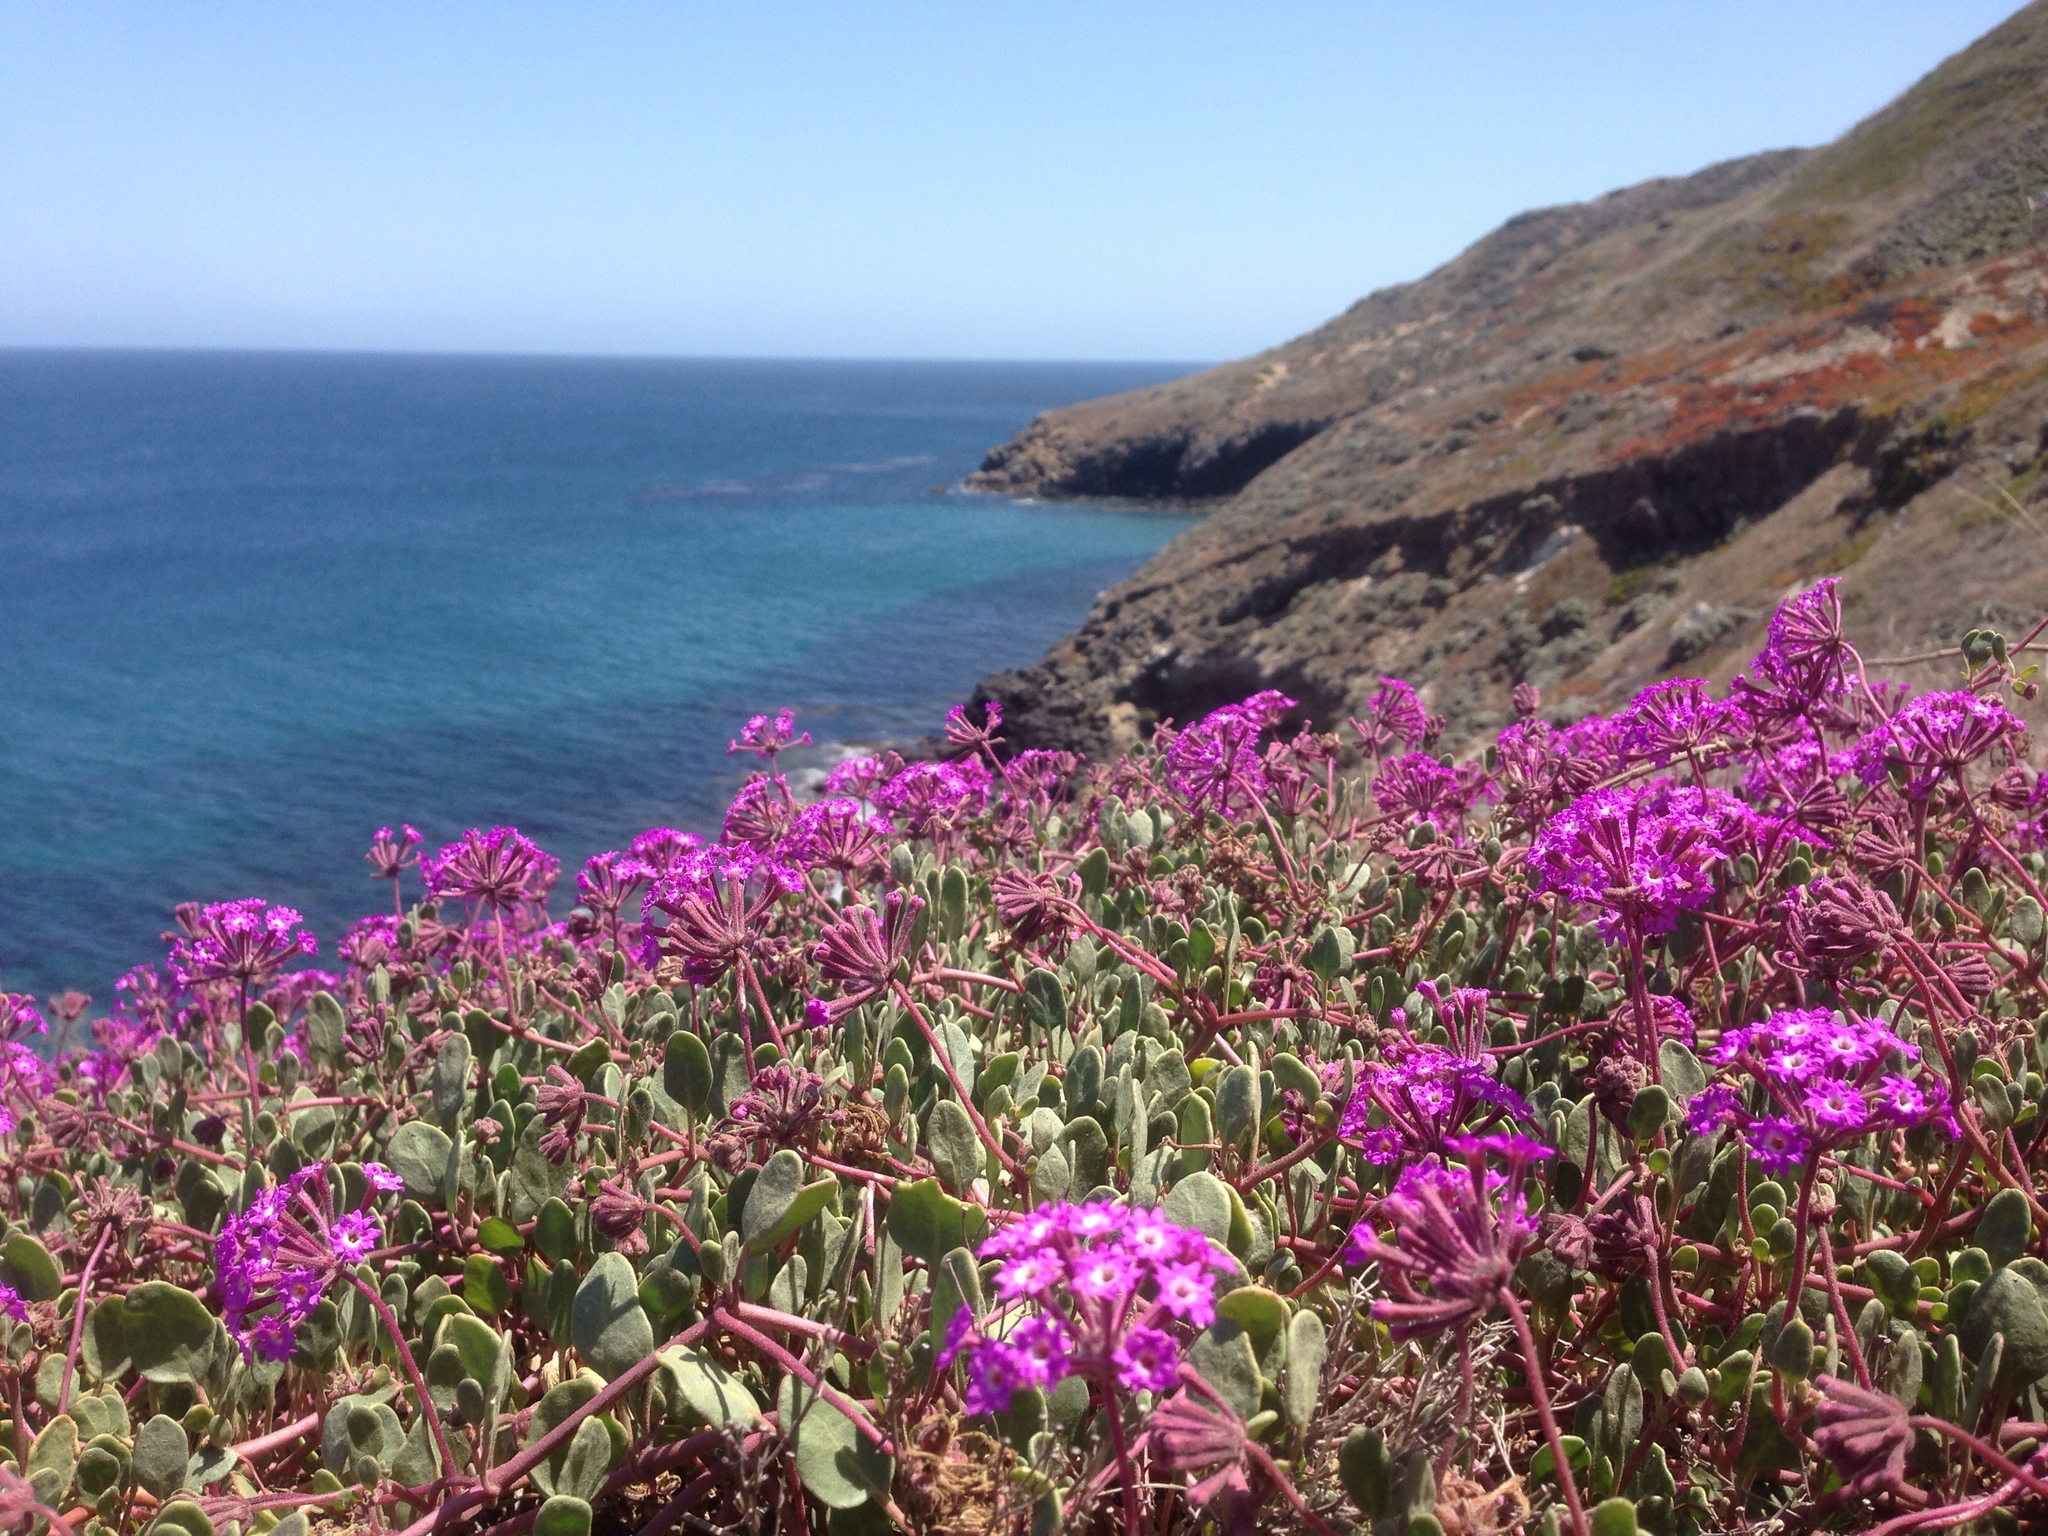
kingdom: Plantae
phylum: Tracheophyta
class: Magnoliopsida
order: Caryophyllales
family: Nyctaginaceae
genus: Abronia
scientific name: Abronia umbellata
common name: Sand-verbena
